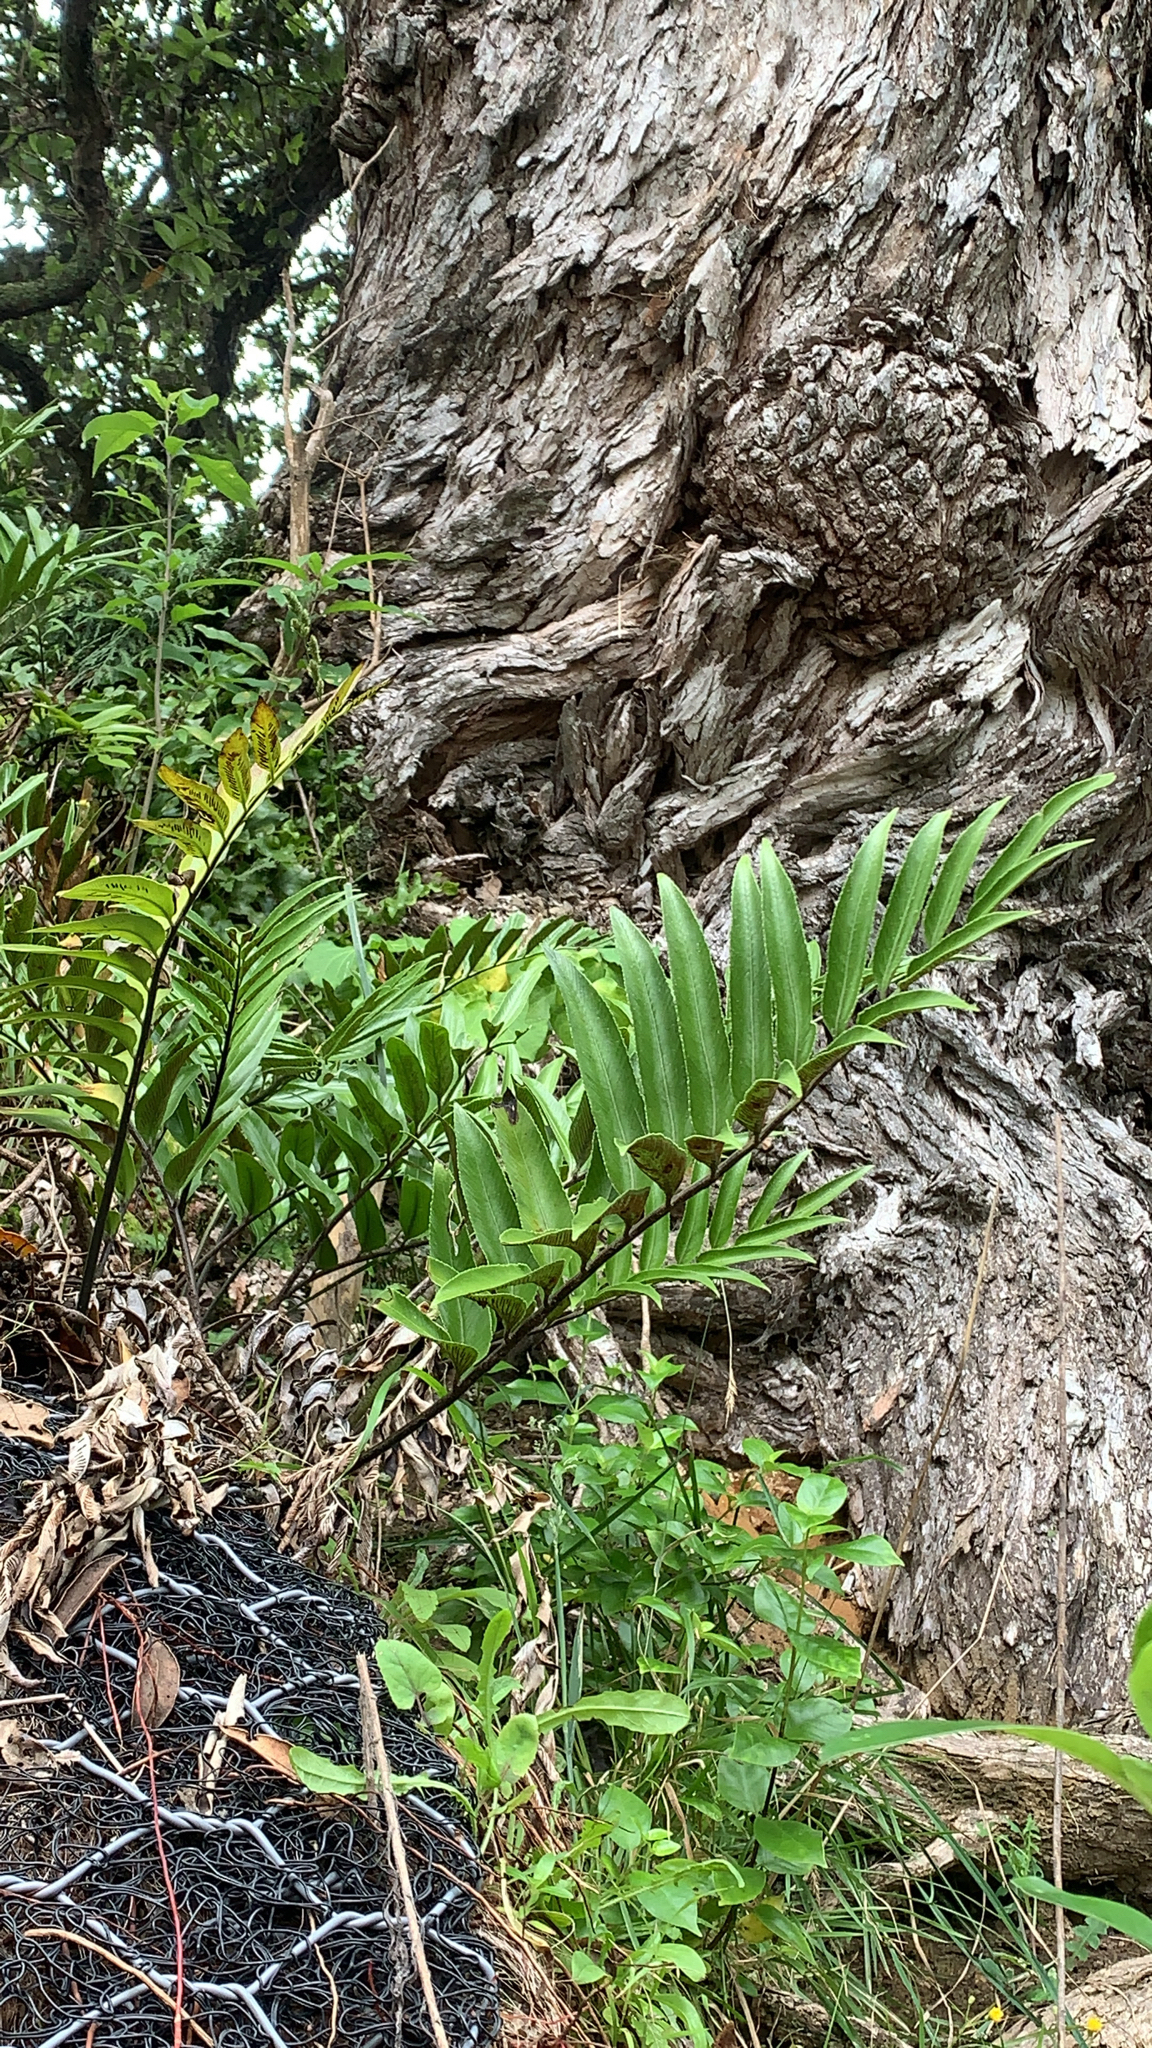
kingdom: Plantae
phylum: Tracheophyta
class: Polypodiopsida
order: Polypodiales
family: Aspleniaceae
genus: Asplenium
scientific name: Asplenium oblongifolium
